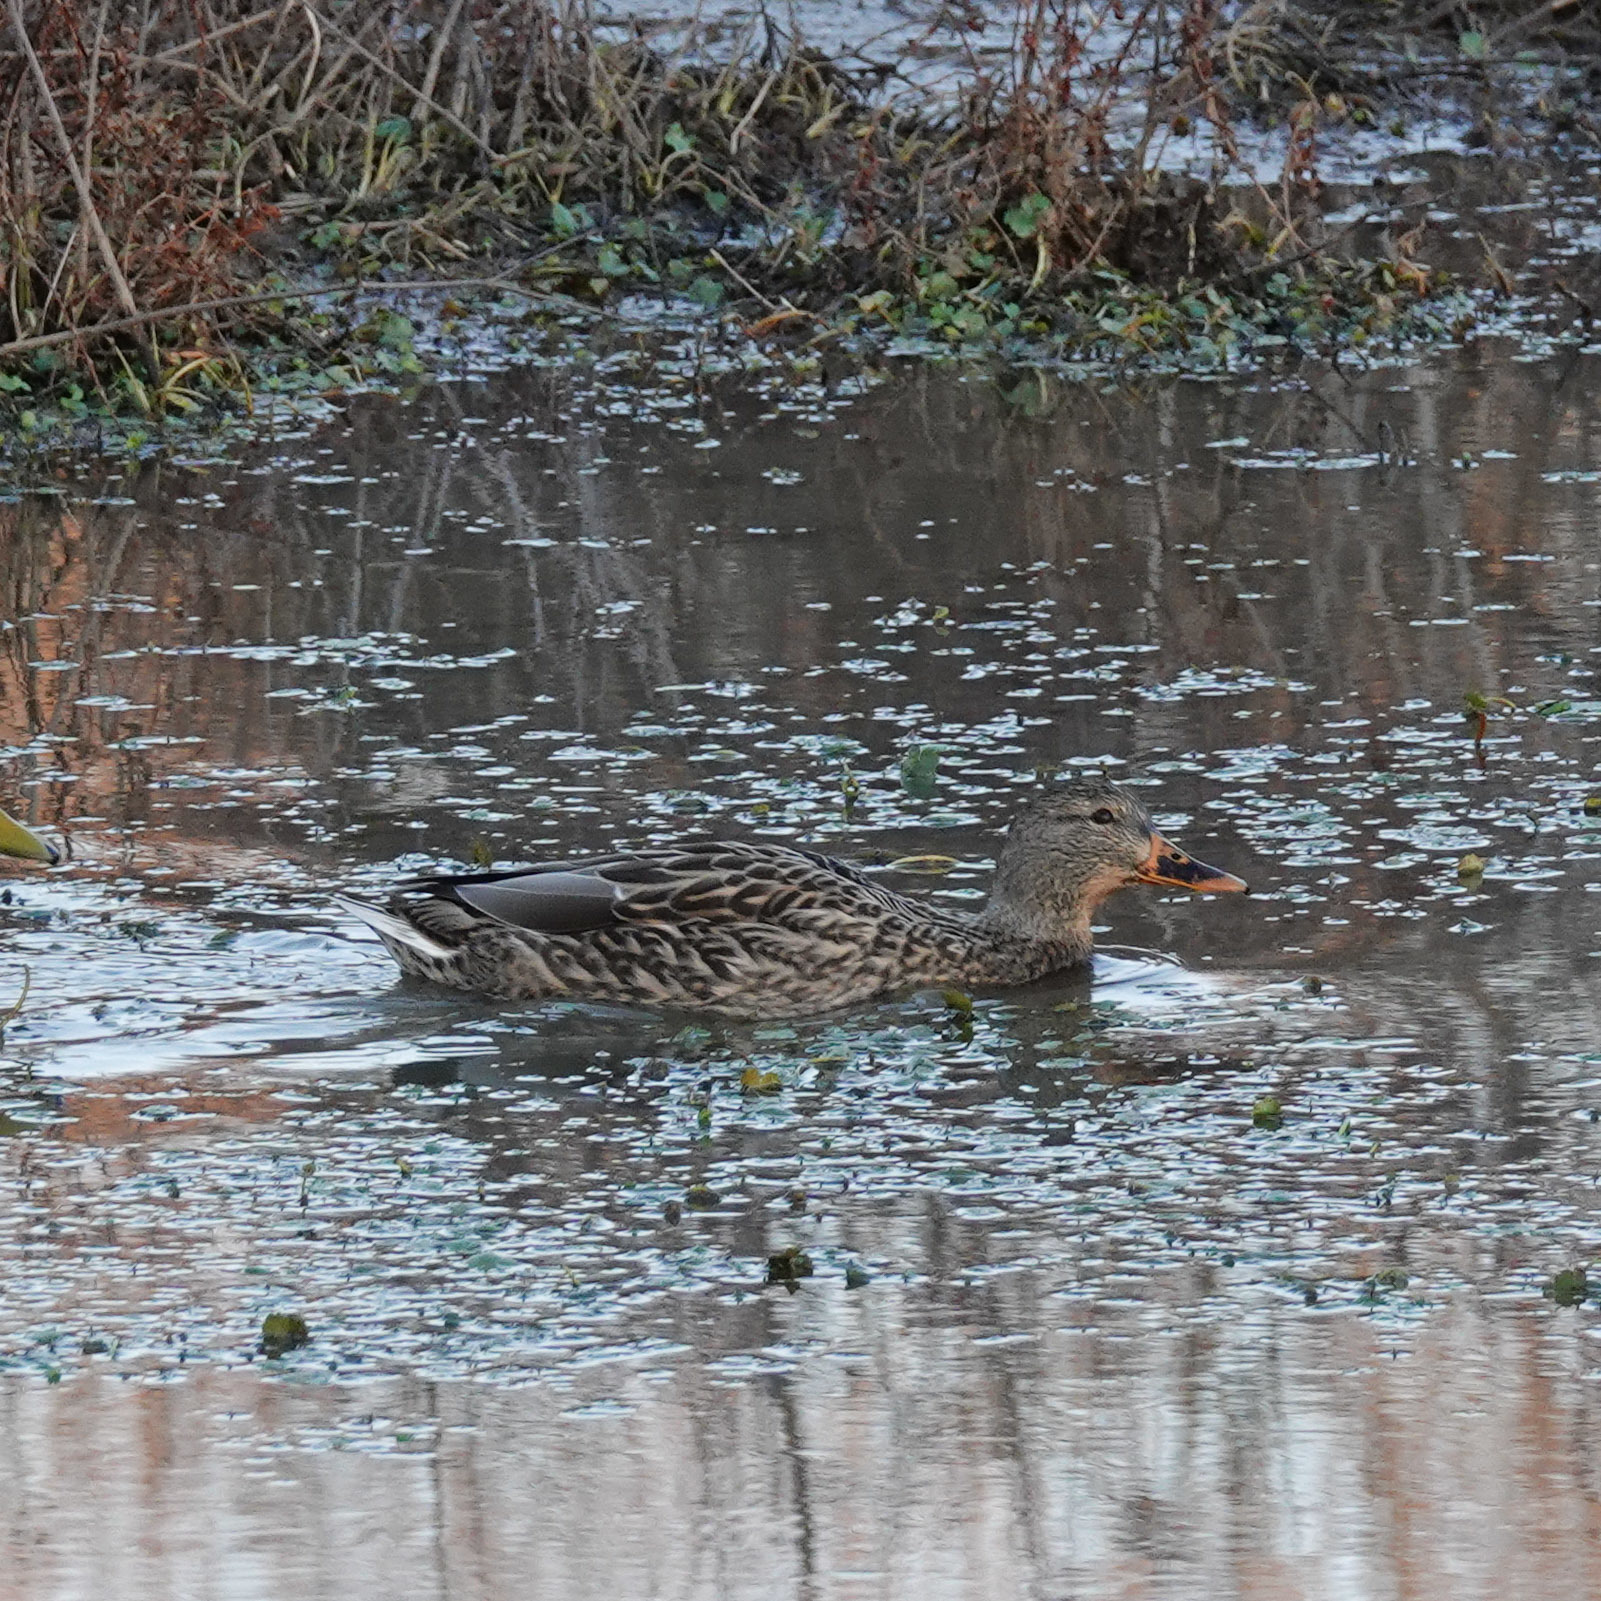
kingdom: Animalia
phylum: Chordata
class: Aves
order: Anseriformes
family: Anatidae
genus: Anas
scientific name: Anas platyrhynchos
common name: Mallard
